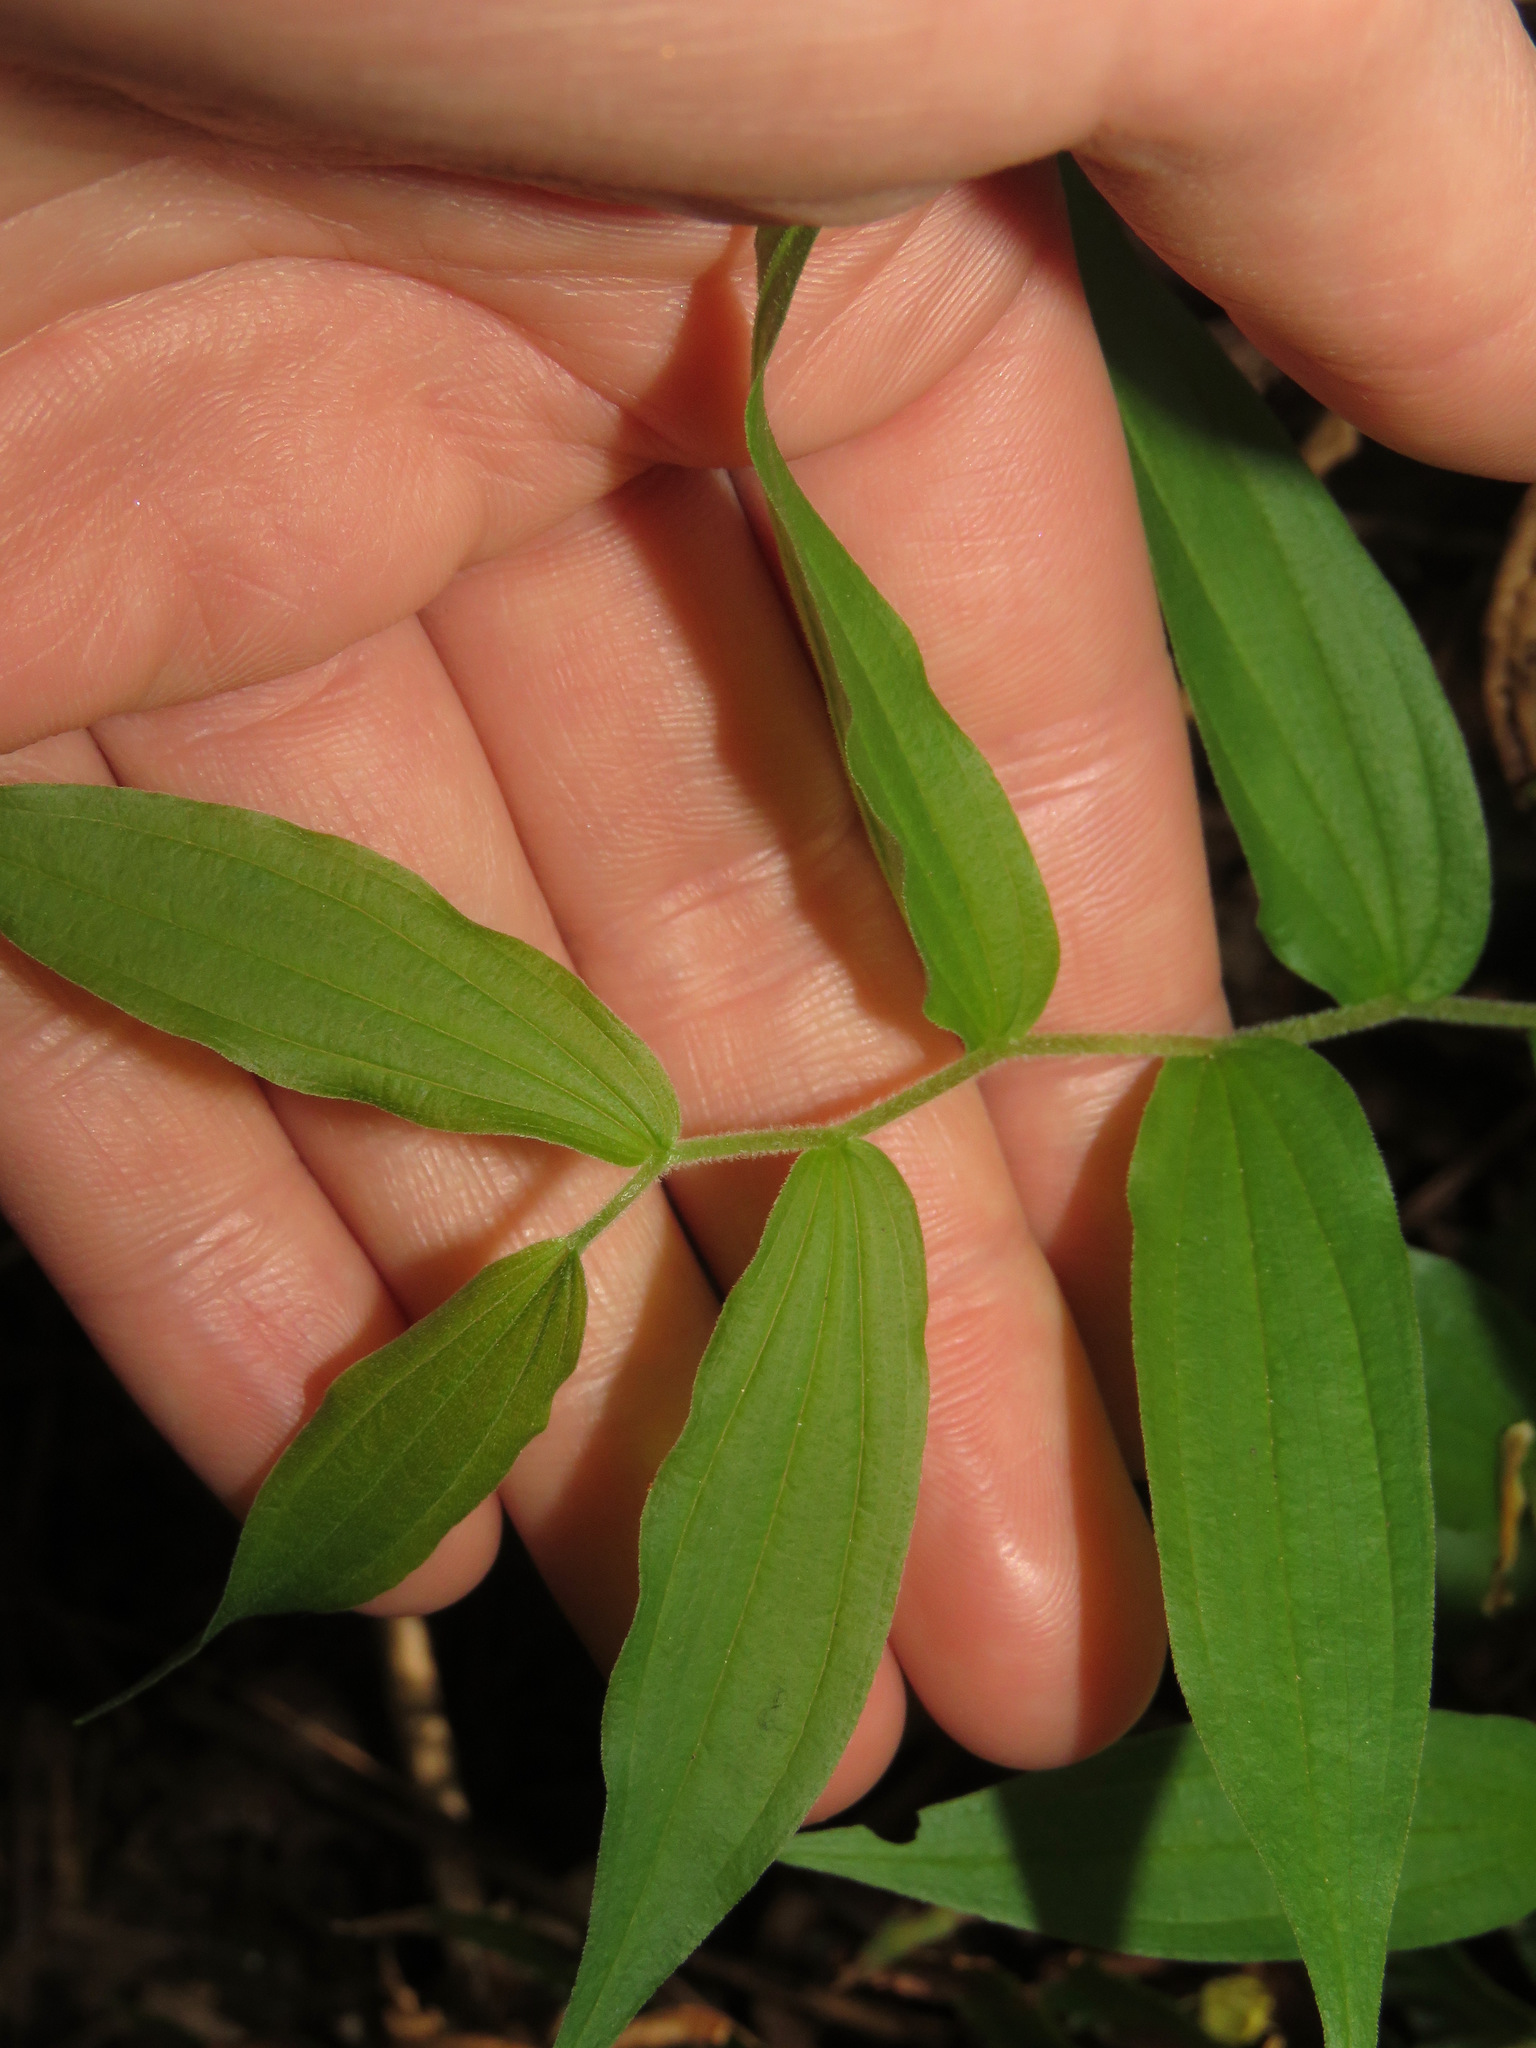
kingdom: Plantae
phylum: Tracheophyta
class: Liliopsida
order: Liliales
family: Liliaceae
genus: Prosartes
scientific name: Prosartes hookeri
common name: Fairy-bells
